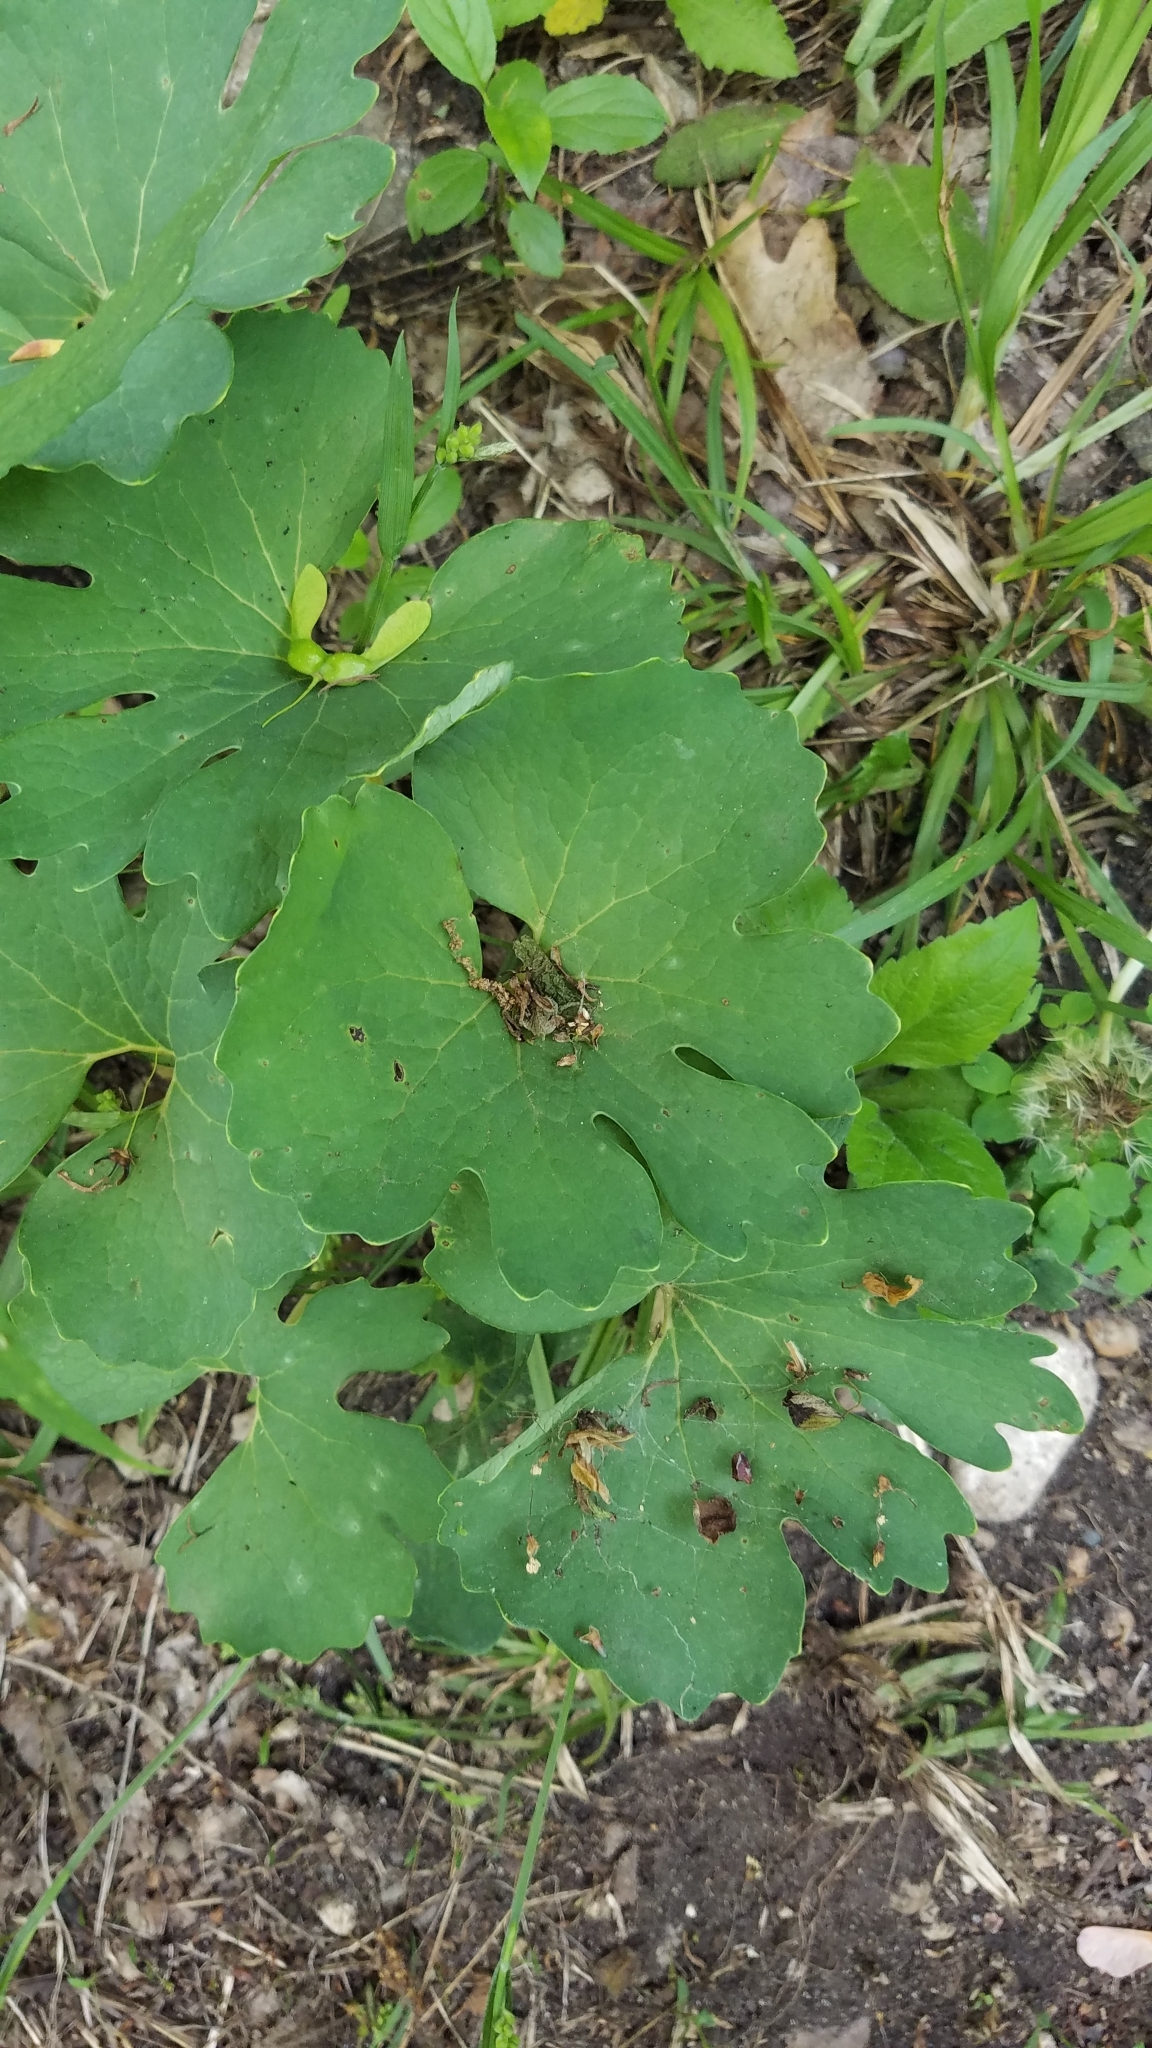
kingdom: Plantae
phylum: Tracheophyta
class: Magnoliopsida
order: Ranunculales
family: Papaveraceae
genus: Sanguinaria
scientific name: Sanguinaria canadensis
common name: Bloodroot
